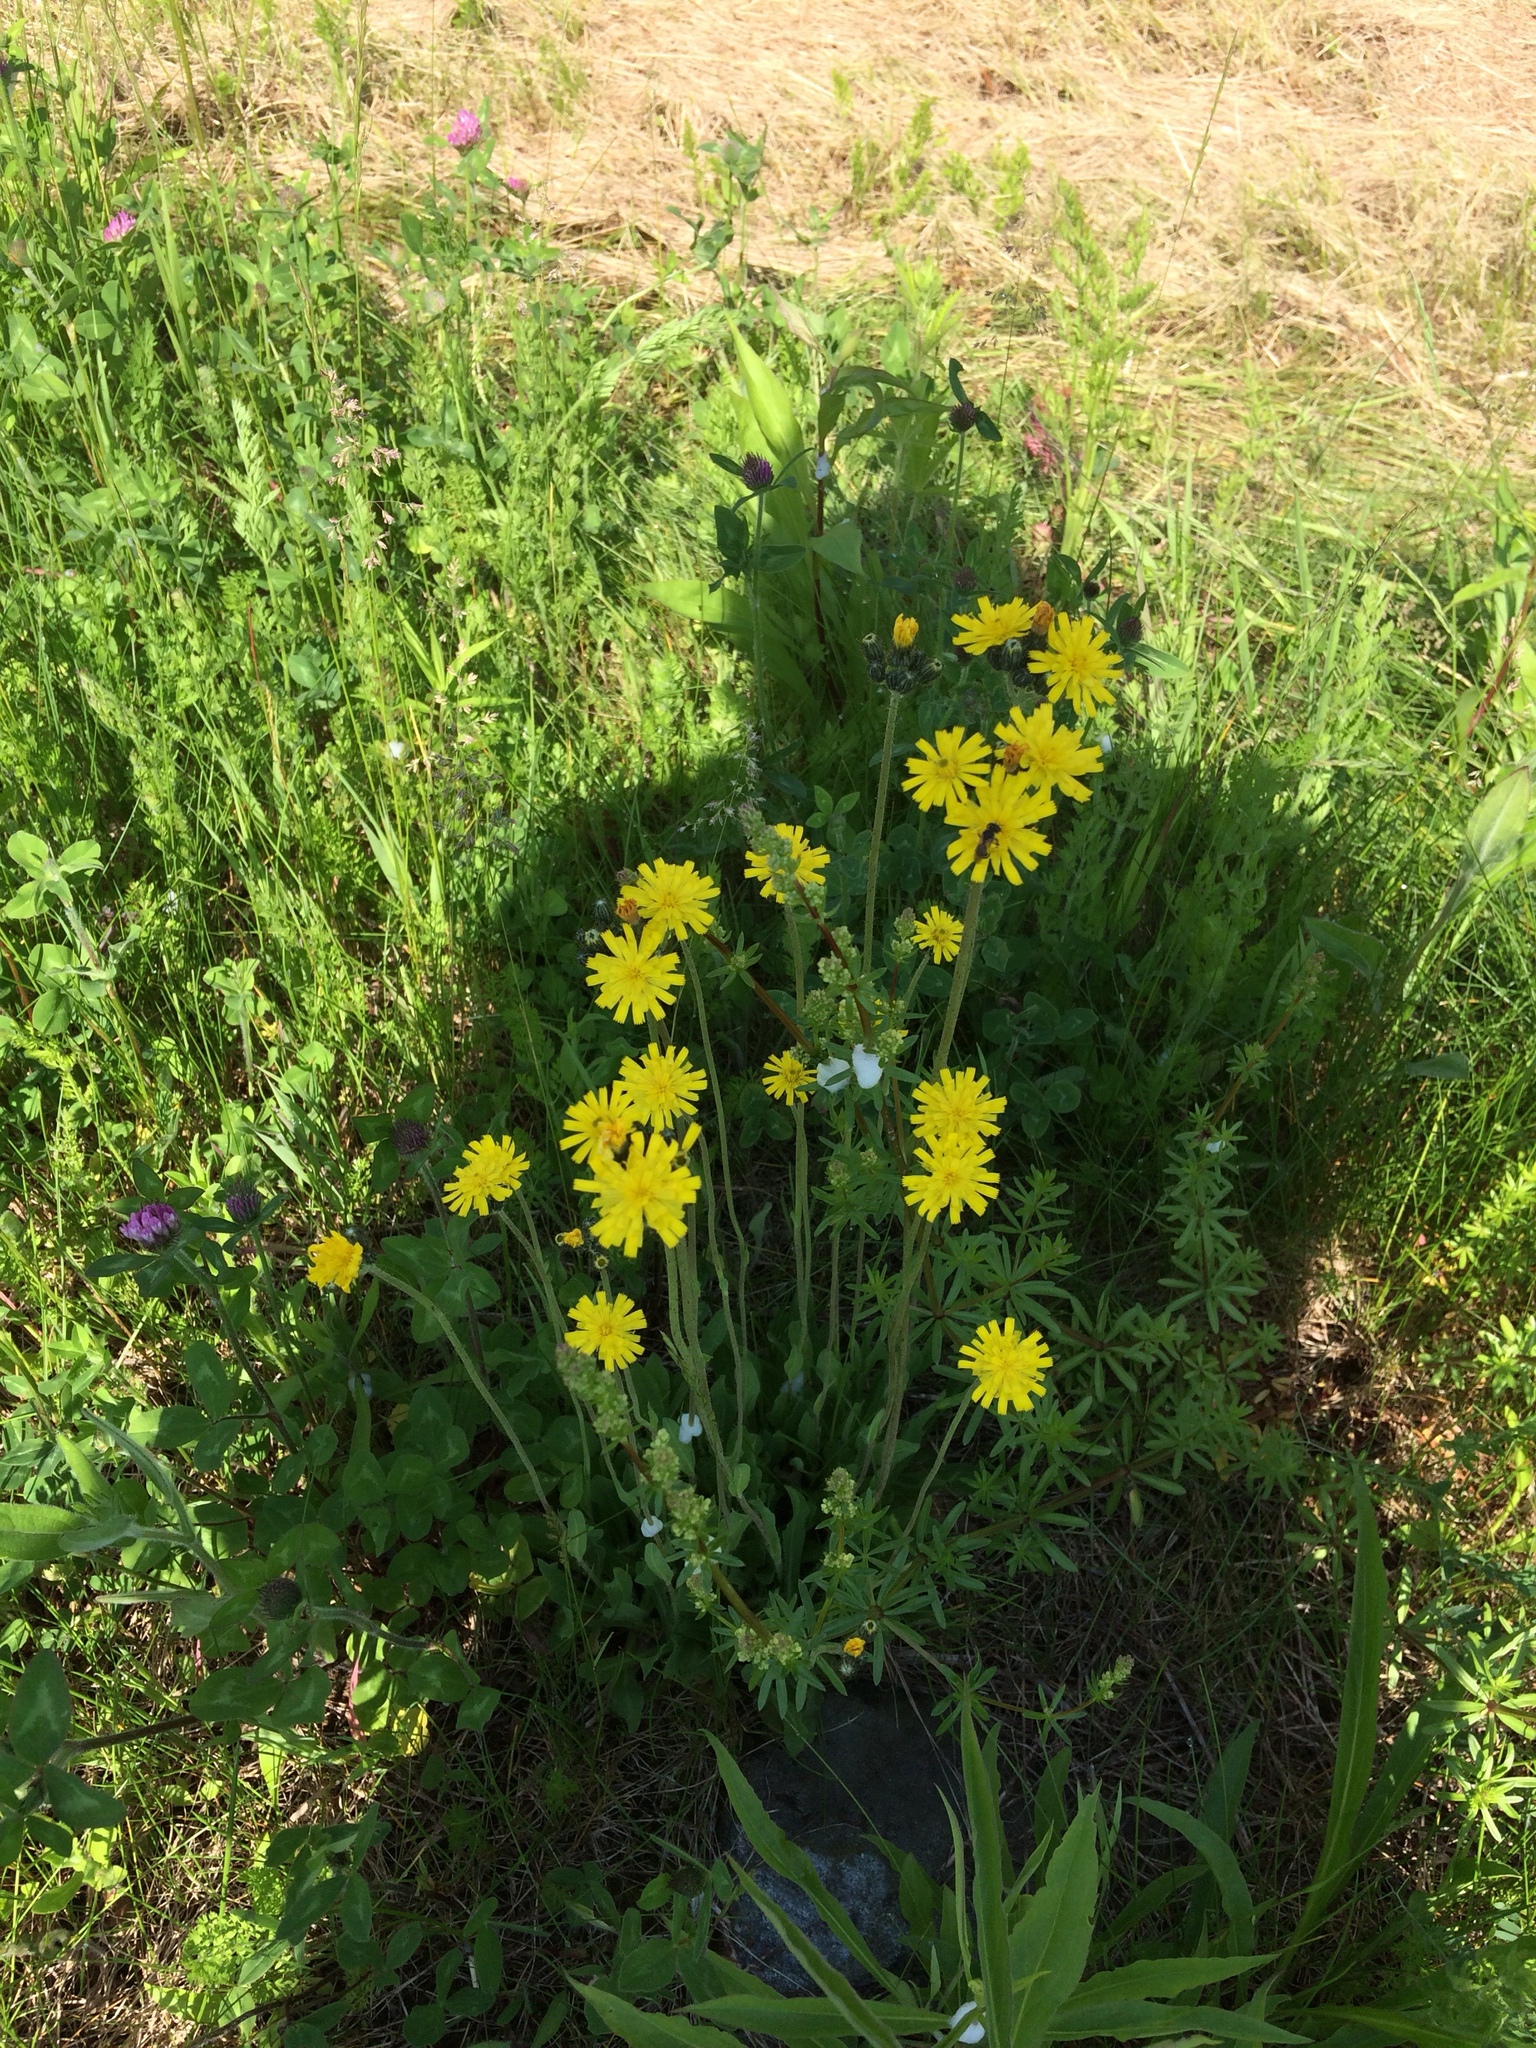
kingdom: Plantae
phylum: Tracheophyta
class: Magnoliopsida
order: Asterales
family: Asteraceae
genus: Pilosella
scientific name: Pilosella caespitosa
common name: Yellow fox-and-cubs
